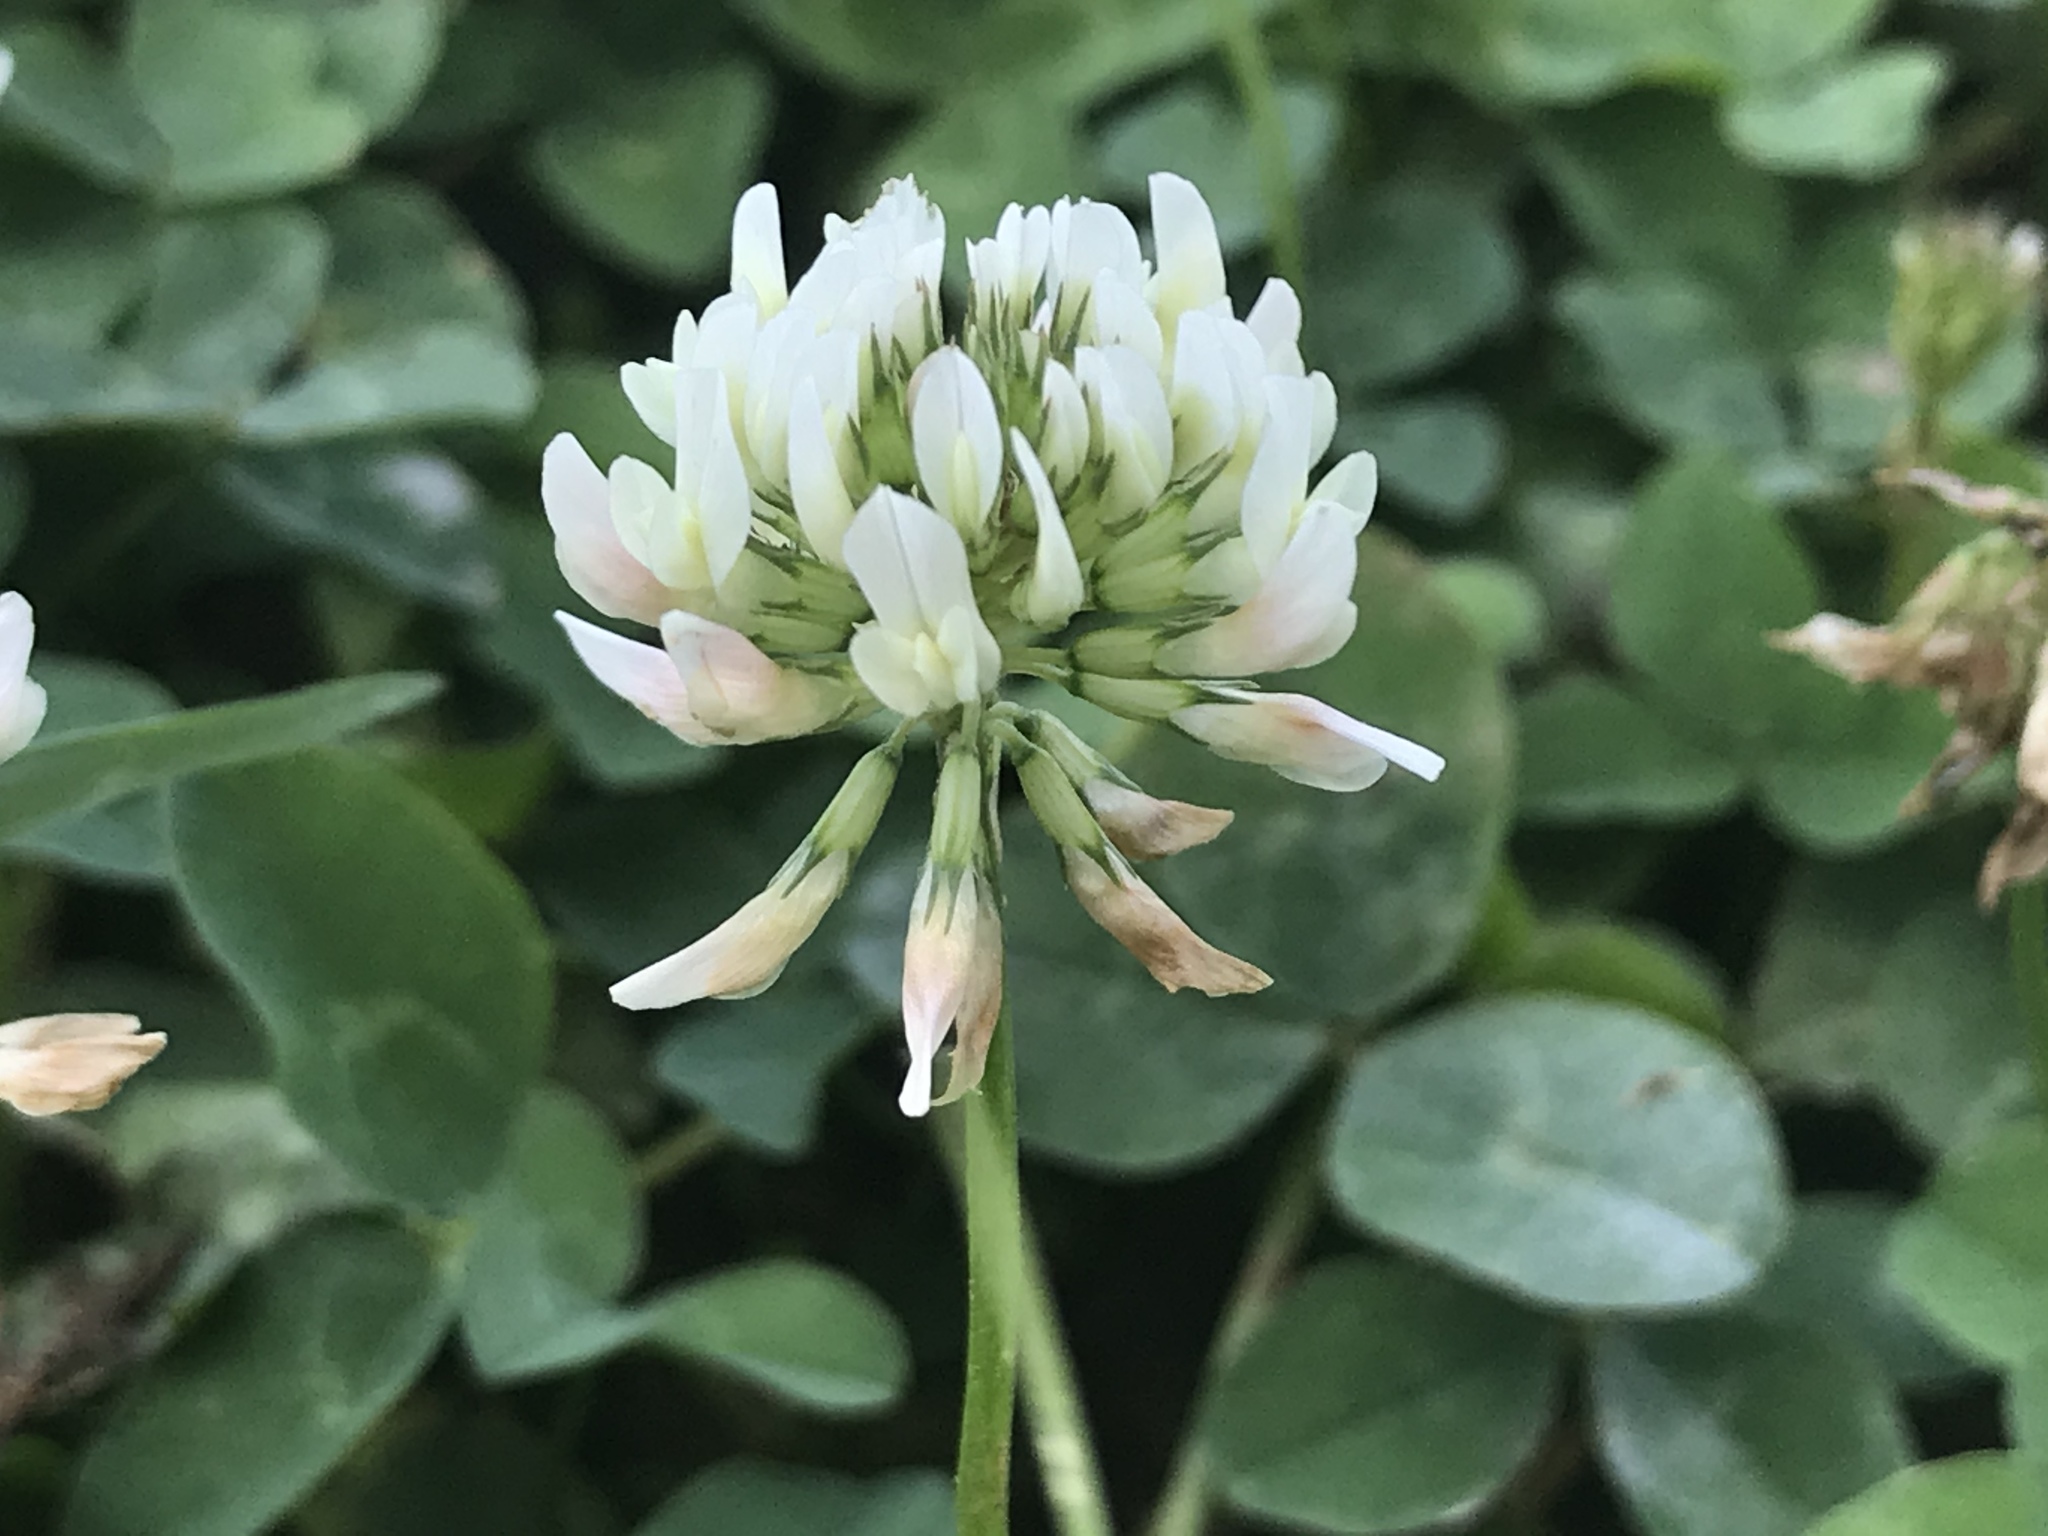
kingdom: Plantae
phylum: Tracheophyta
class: Magnoliopsida
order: Fabales
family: Fabaceae
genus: Trifolium
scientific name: Trifolium repens
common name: White clover
